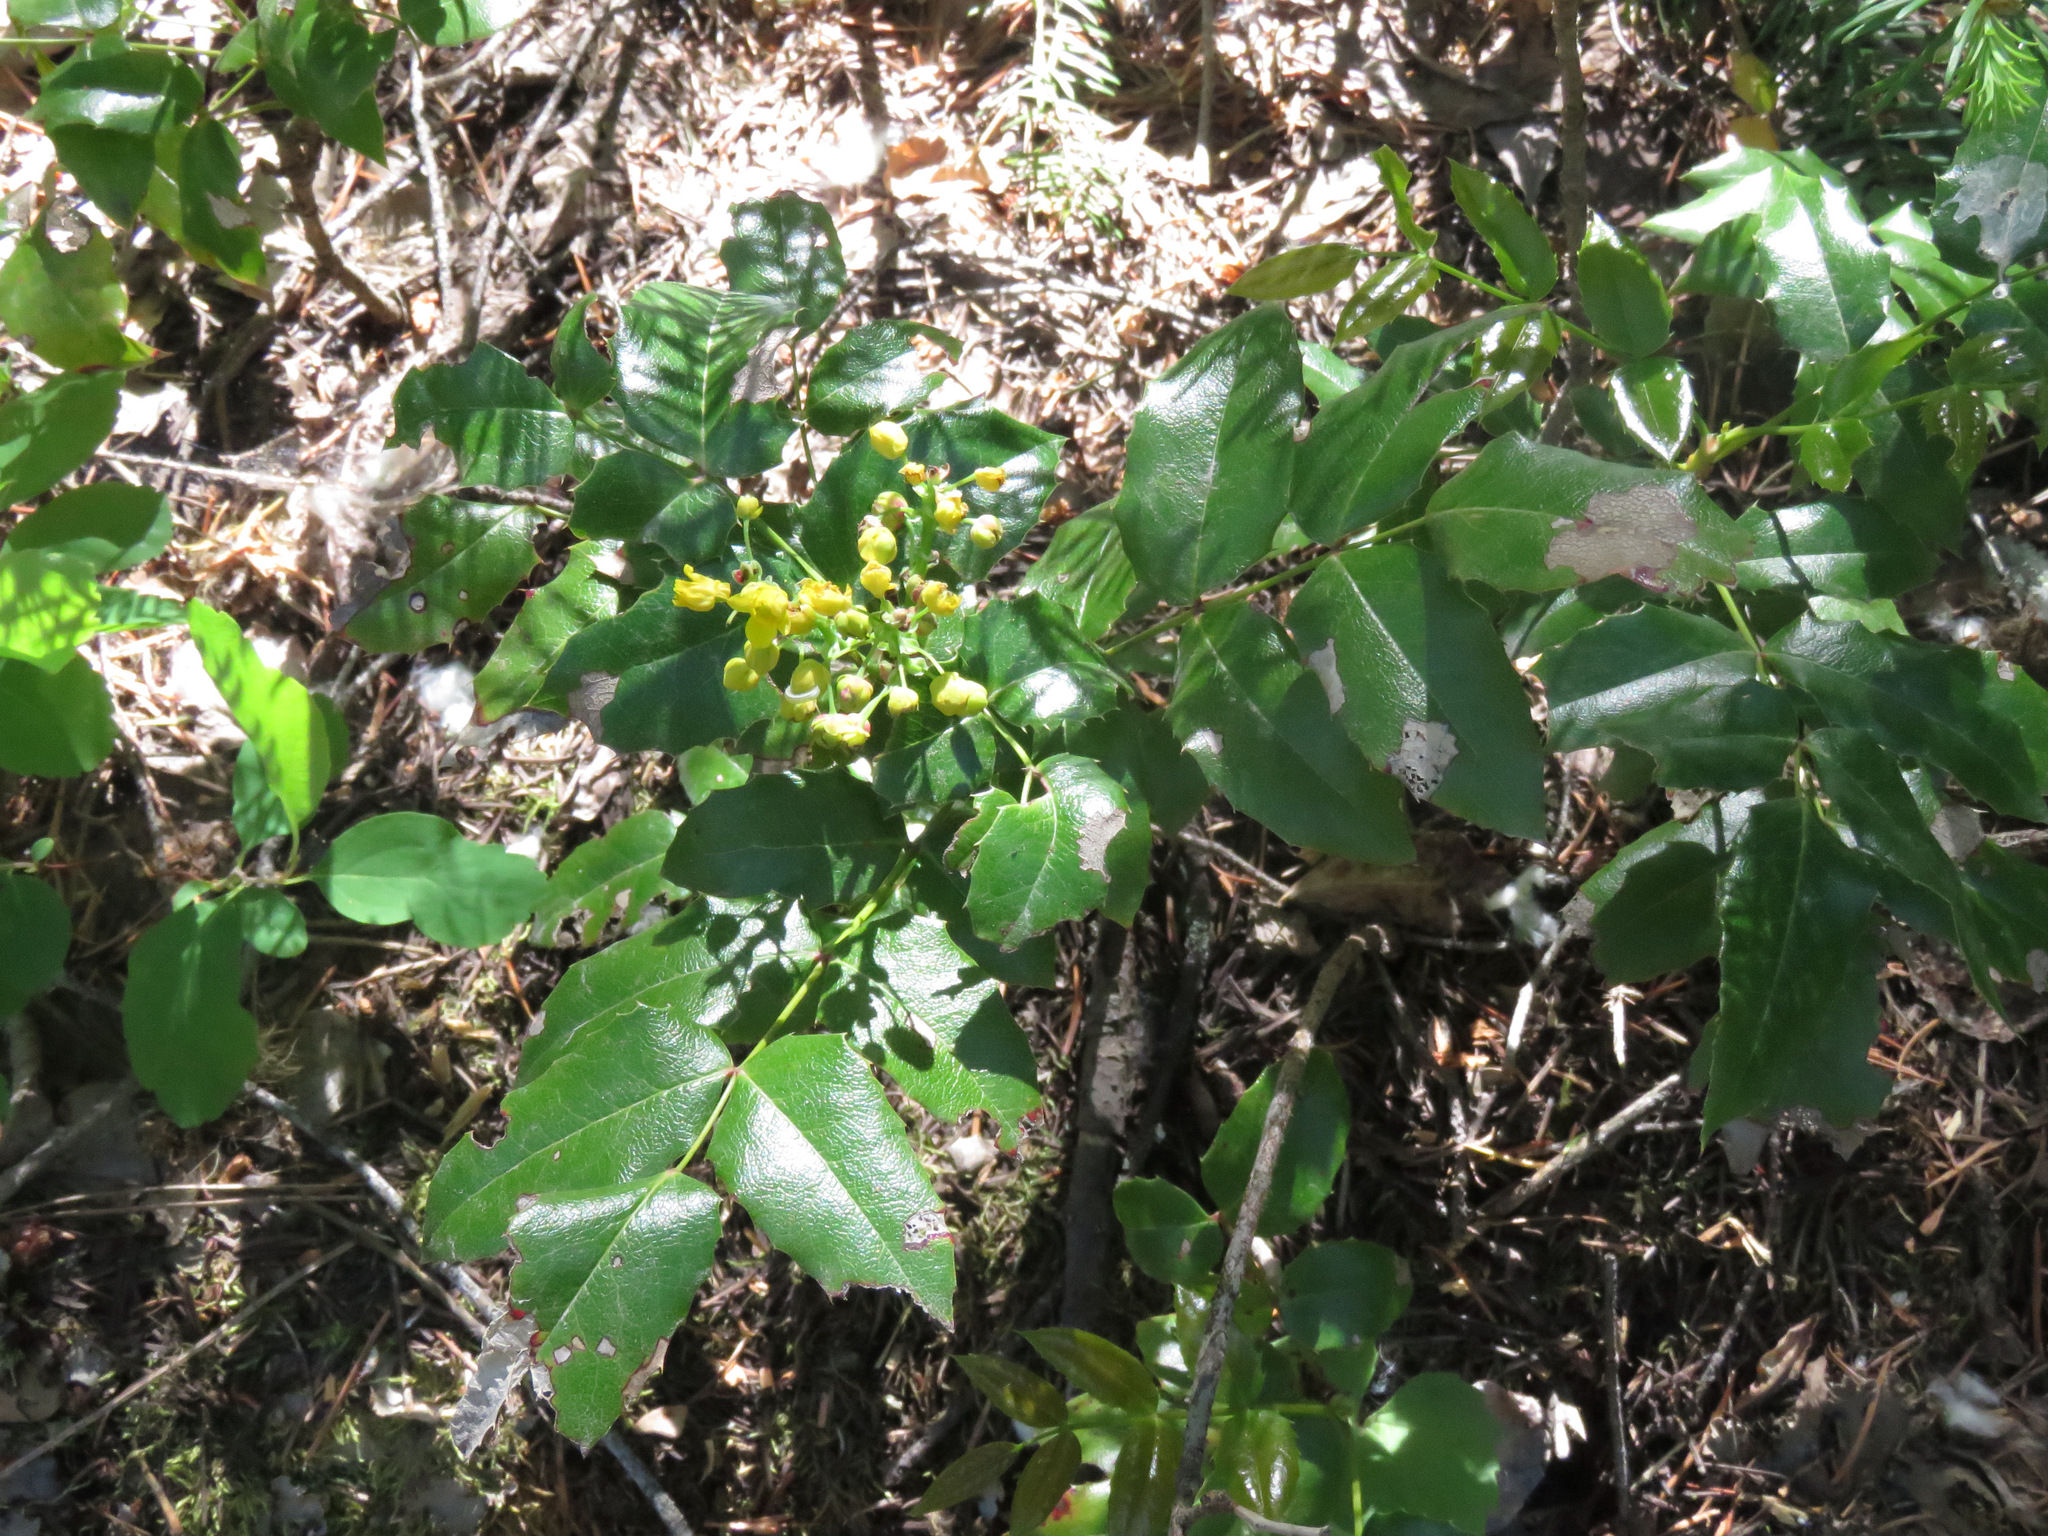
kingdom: Plantae
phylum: Tracheophyta
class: Magnoliopsida
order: Ranunculales
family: Berberidaceae
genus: Mahonia
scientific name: Mahonia aquifolium
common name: Oregon-grape
